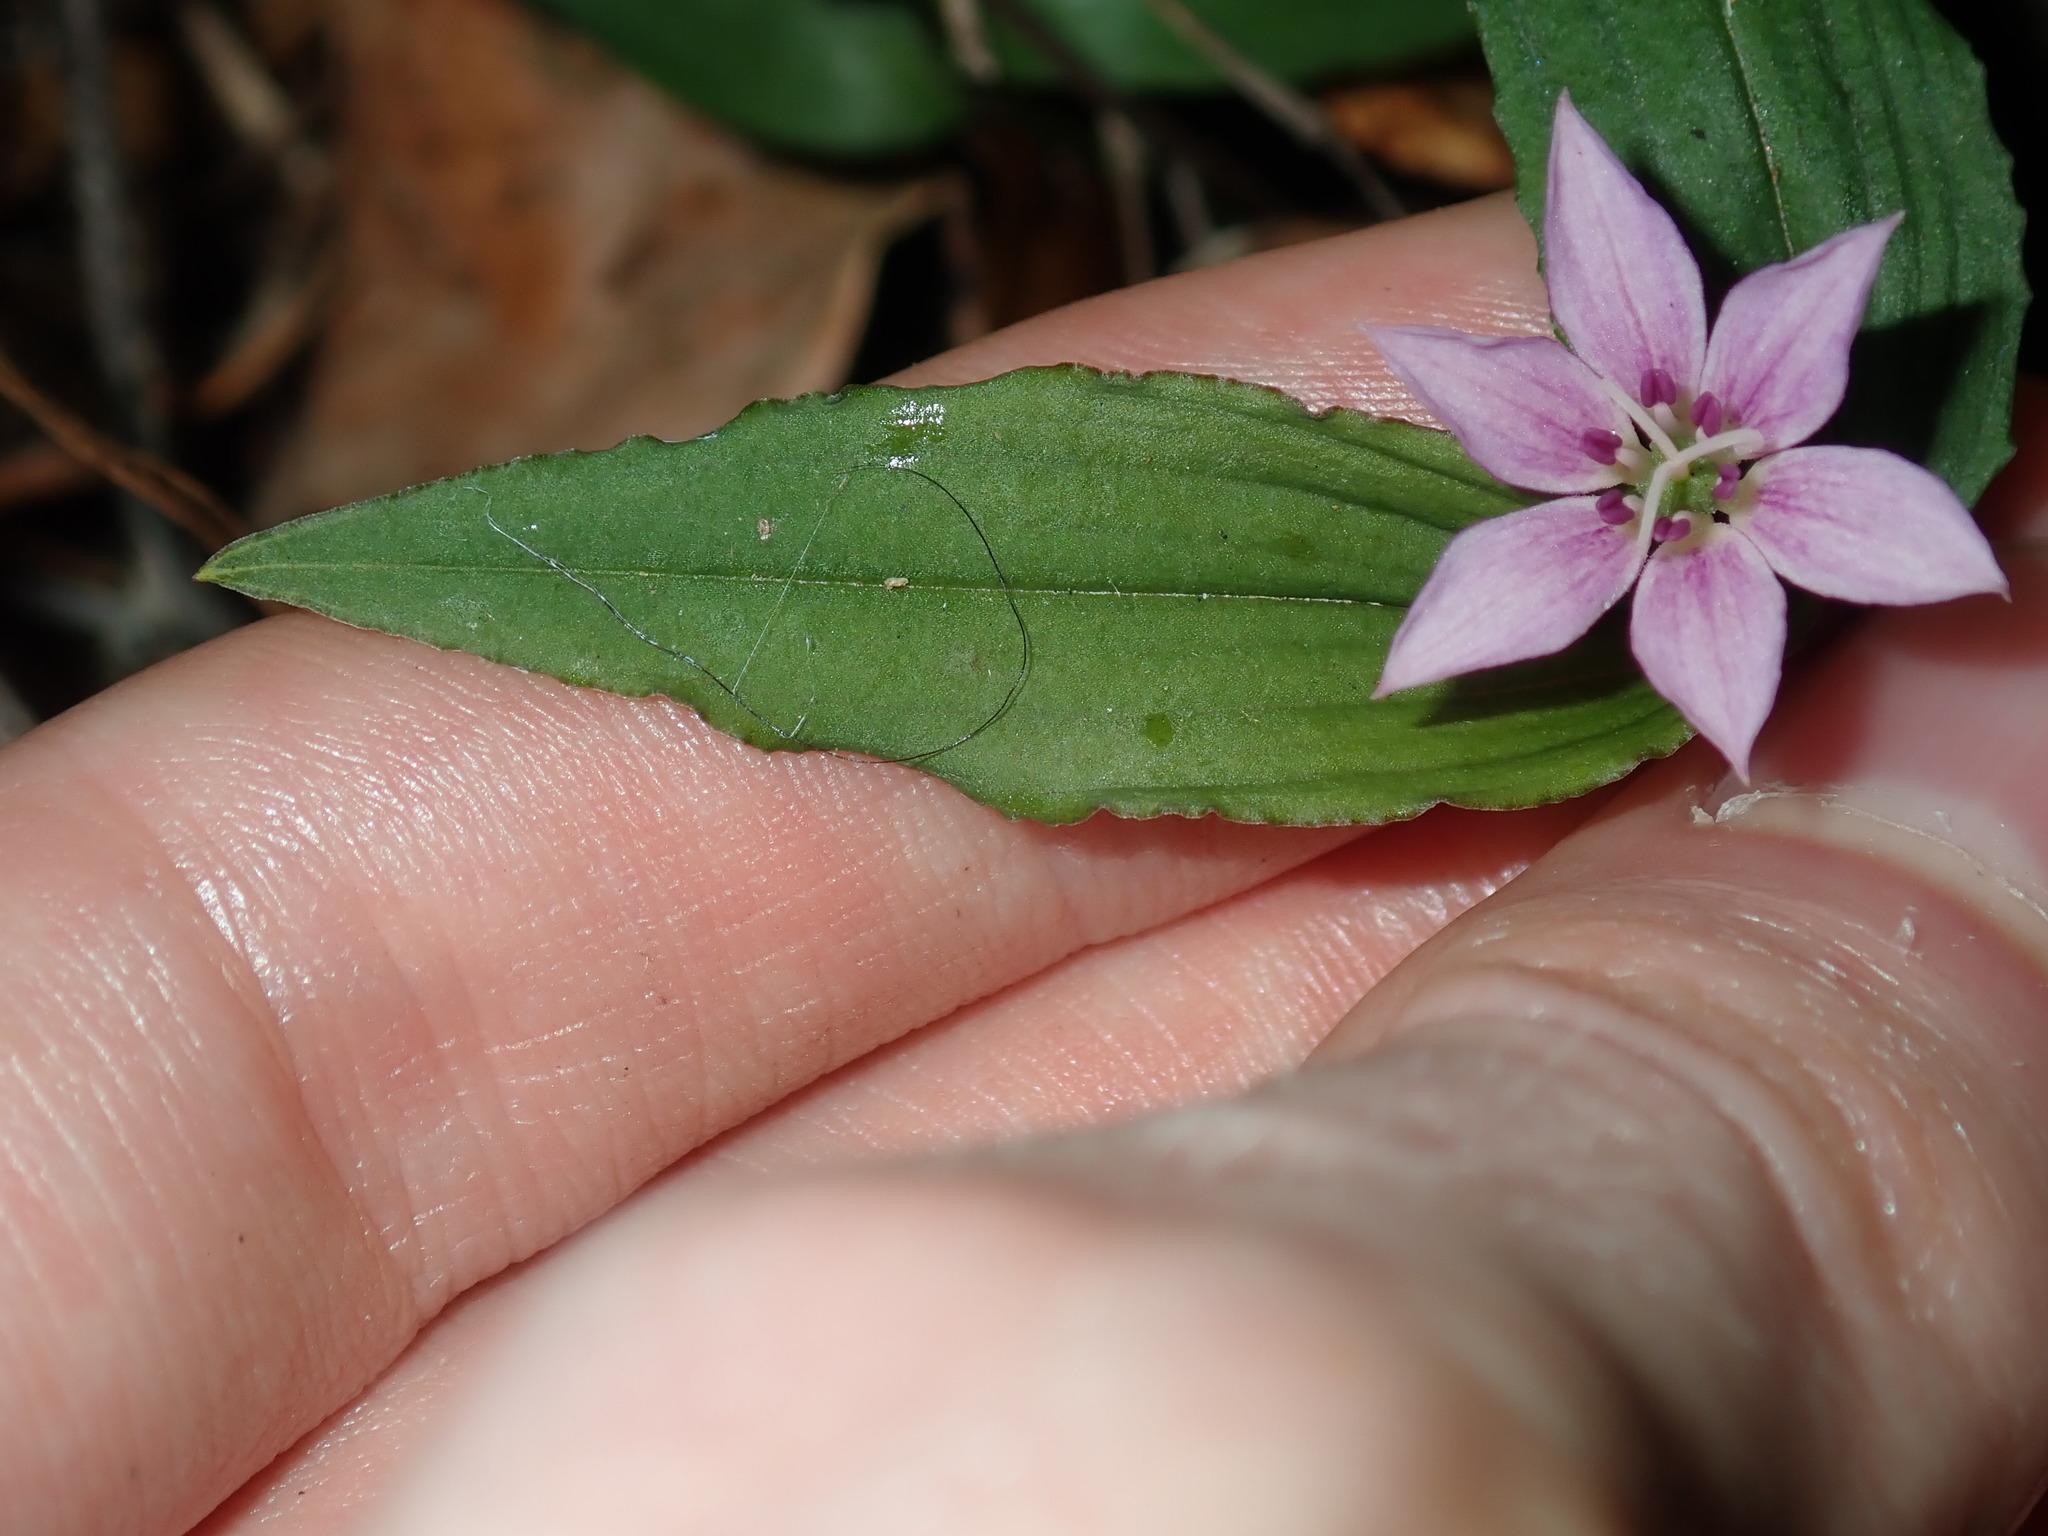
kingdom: Plantae
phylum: Tracheophyta
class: Liliopsida
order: Liliales
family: Colchicaceae
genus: Schelhammera
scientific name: Schelhammera undulata
